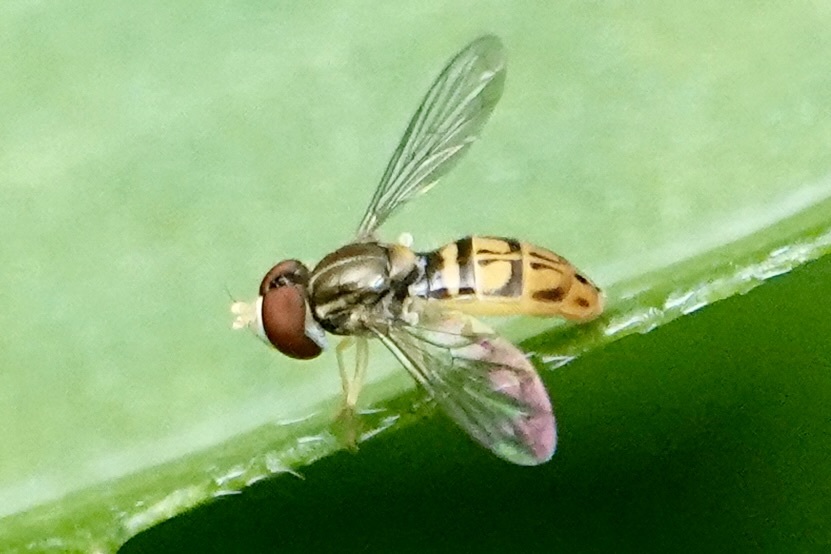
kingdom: Animalia
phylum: Arthropoda
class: Insecta
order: Diptera
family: Syrphidae
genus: Toxomerus
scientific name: Toxomerus marginatus
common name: Syrphid fly
